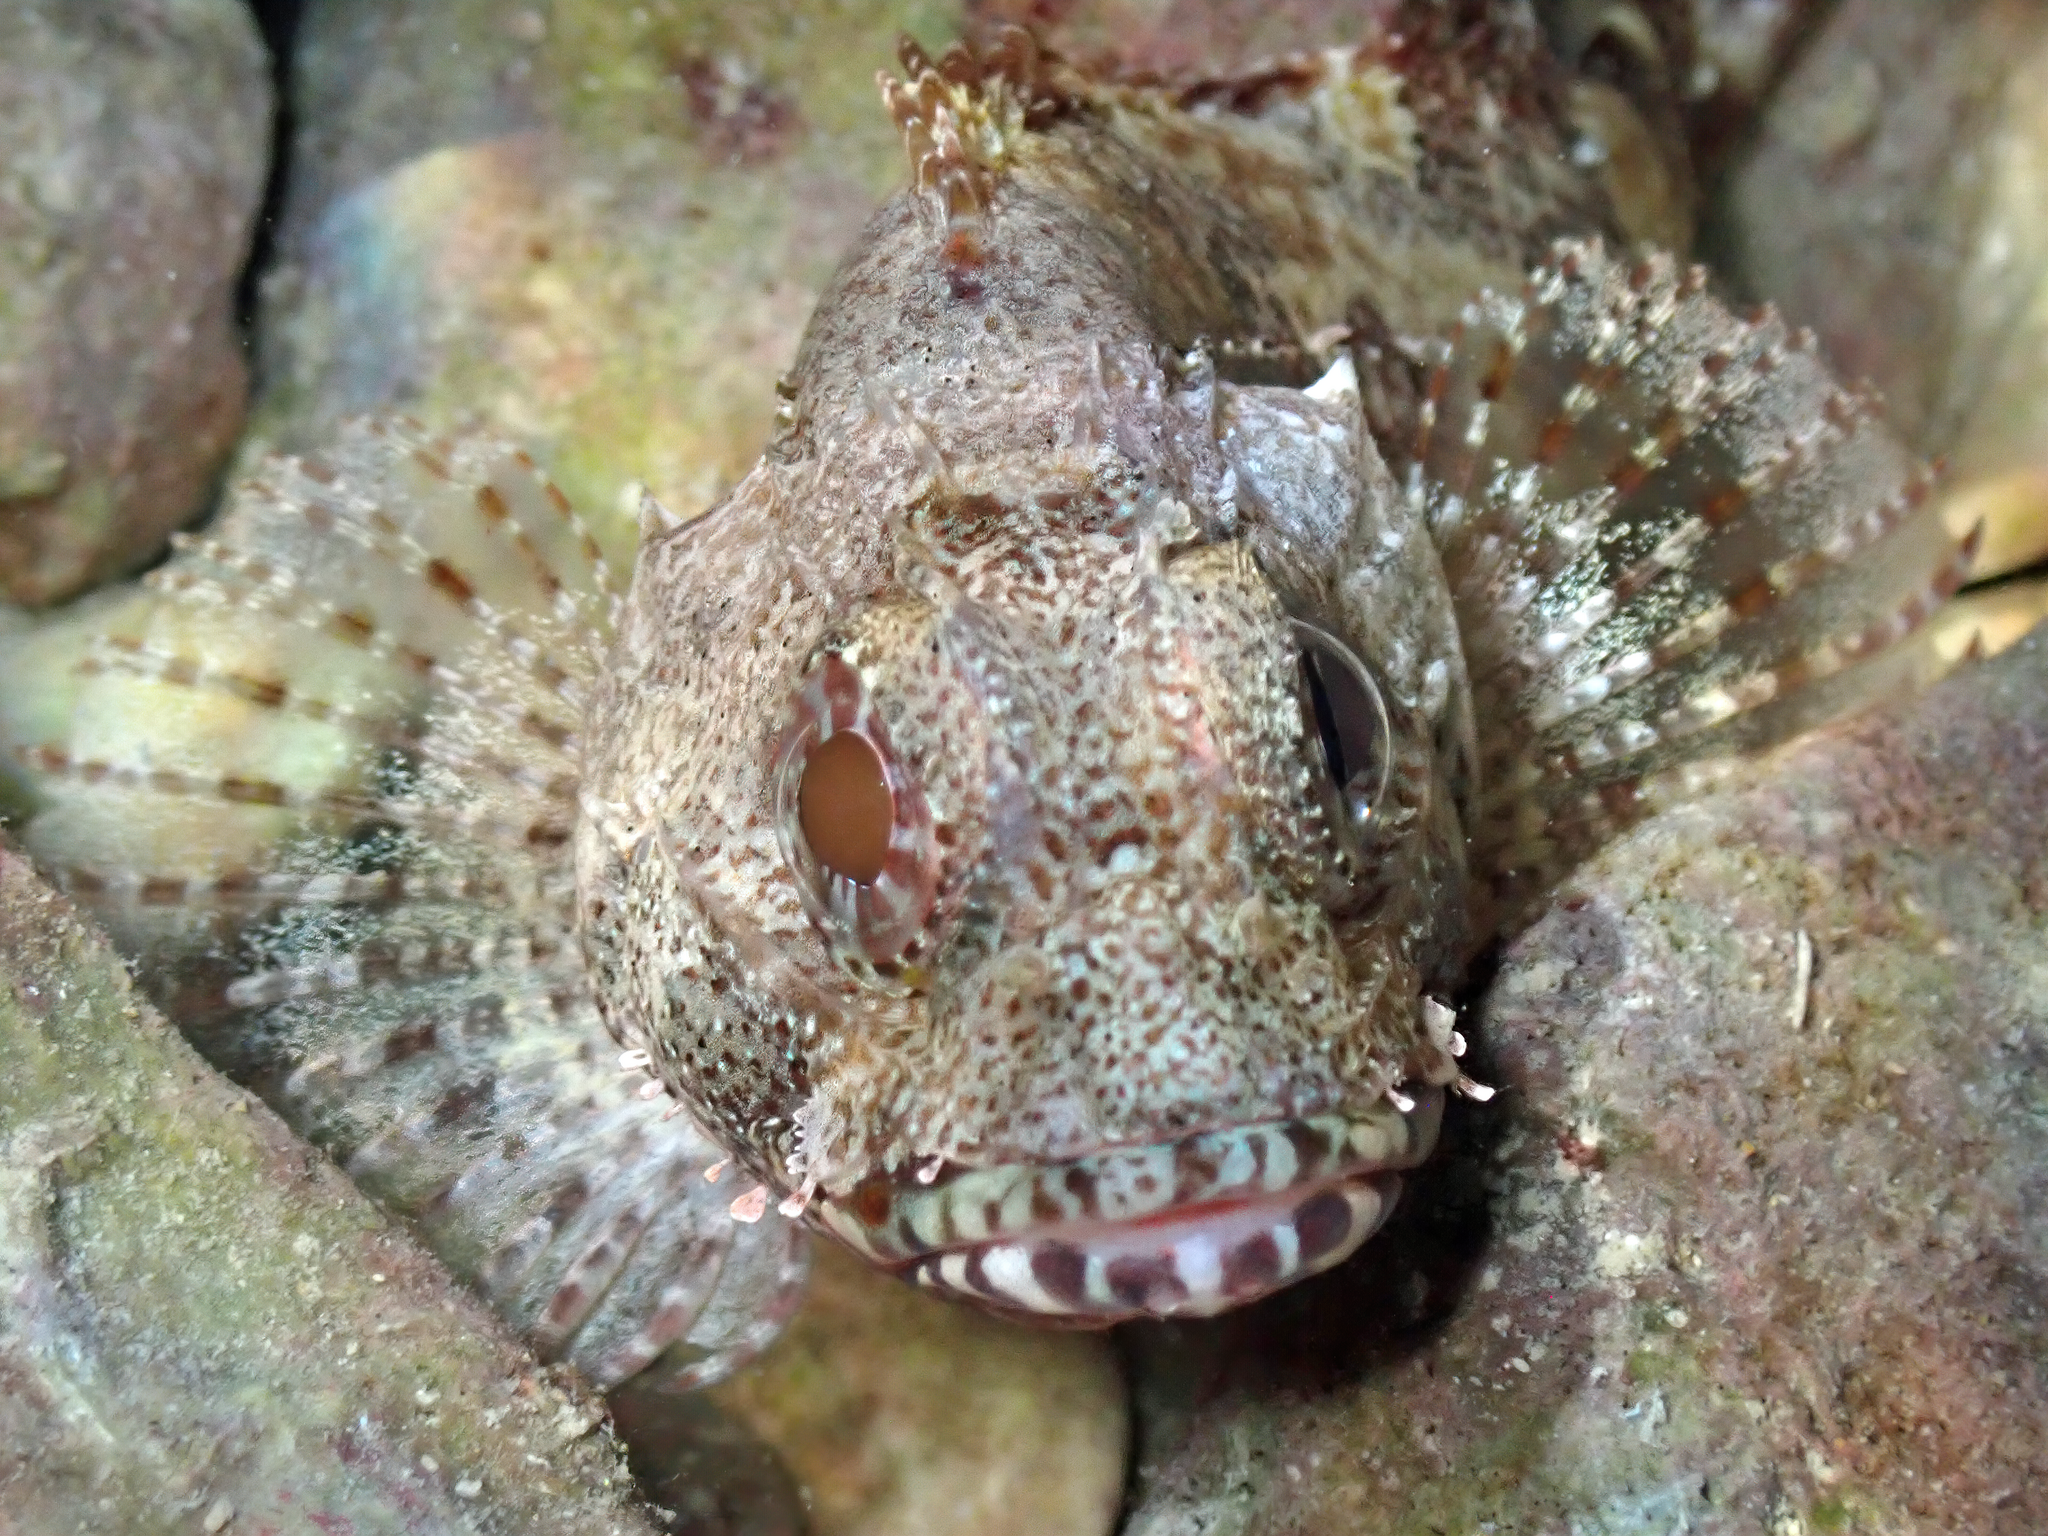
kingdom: Animalia
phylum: Chordata
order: Scorpaeniformes
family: Scorpaenidae
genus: Scorpaena
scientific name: Scorpaena maderensis
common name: Madeira rockfish
